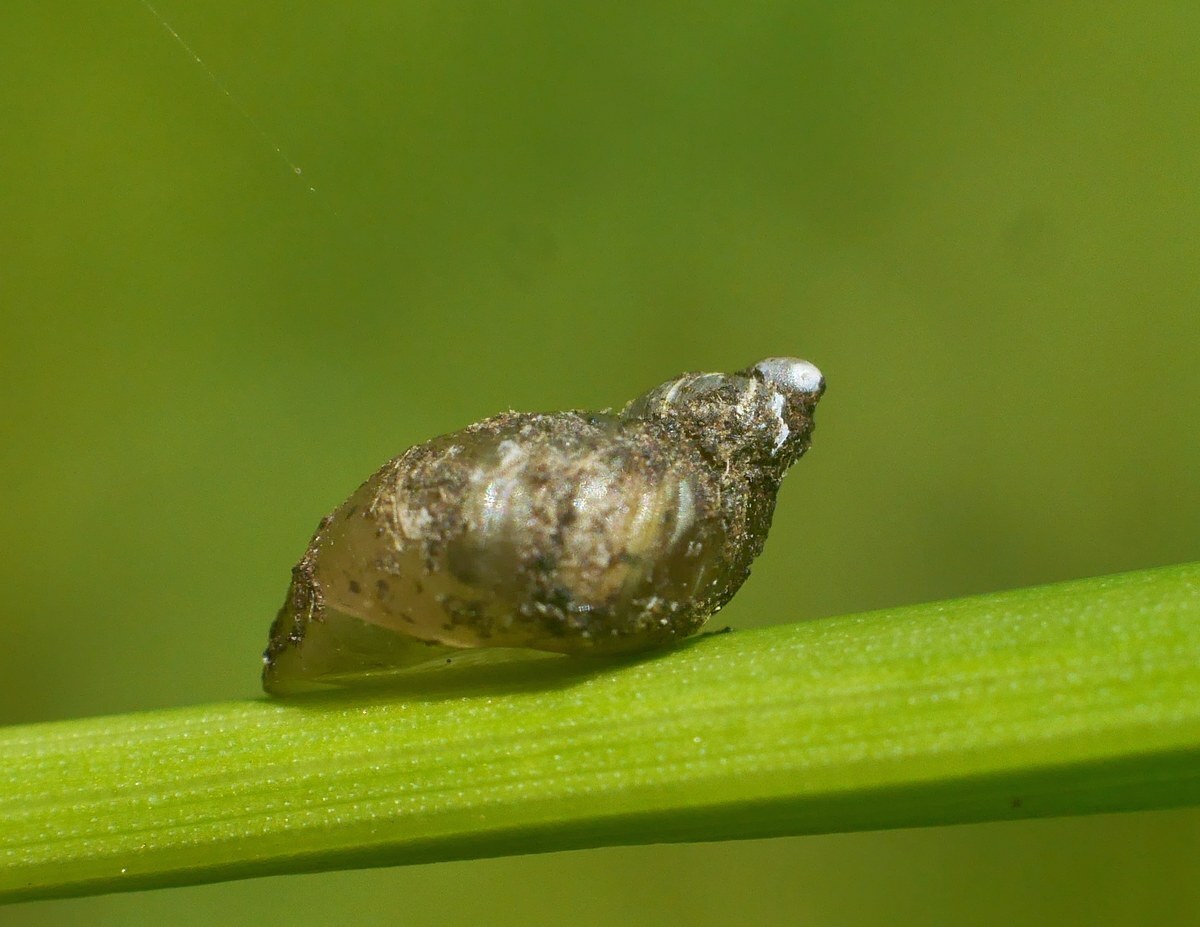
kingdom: Animalia
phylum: Mollusca
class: Gastropoda
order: Stylommatophora
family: Succineidae
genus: Succinella
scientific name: Succinella oblonga
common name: Small amber snail
